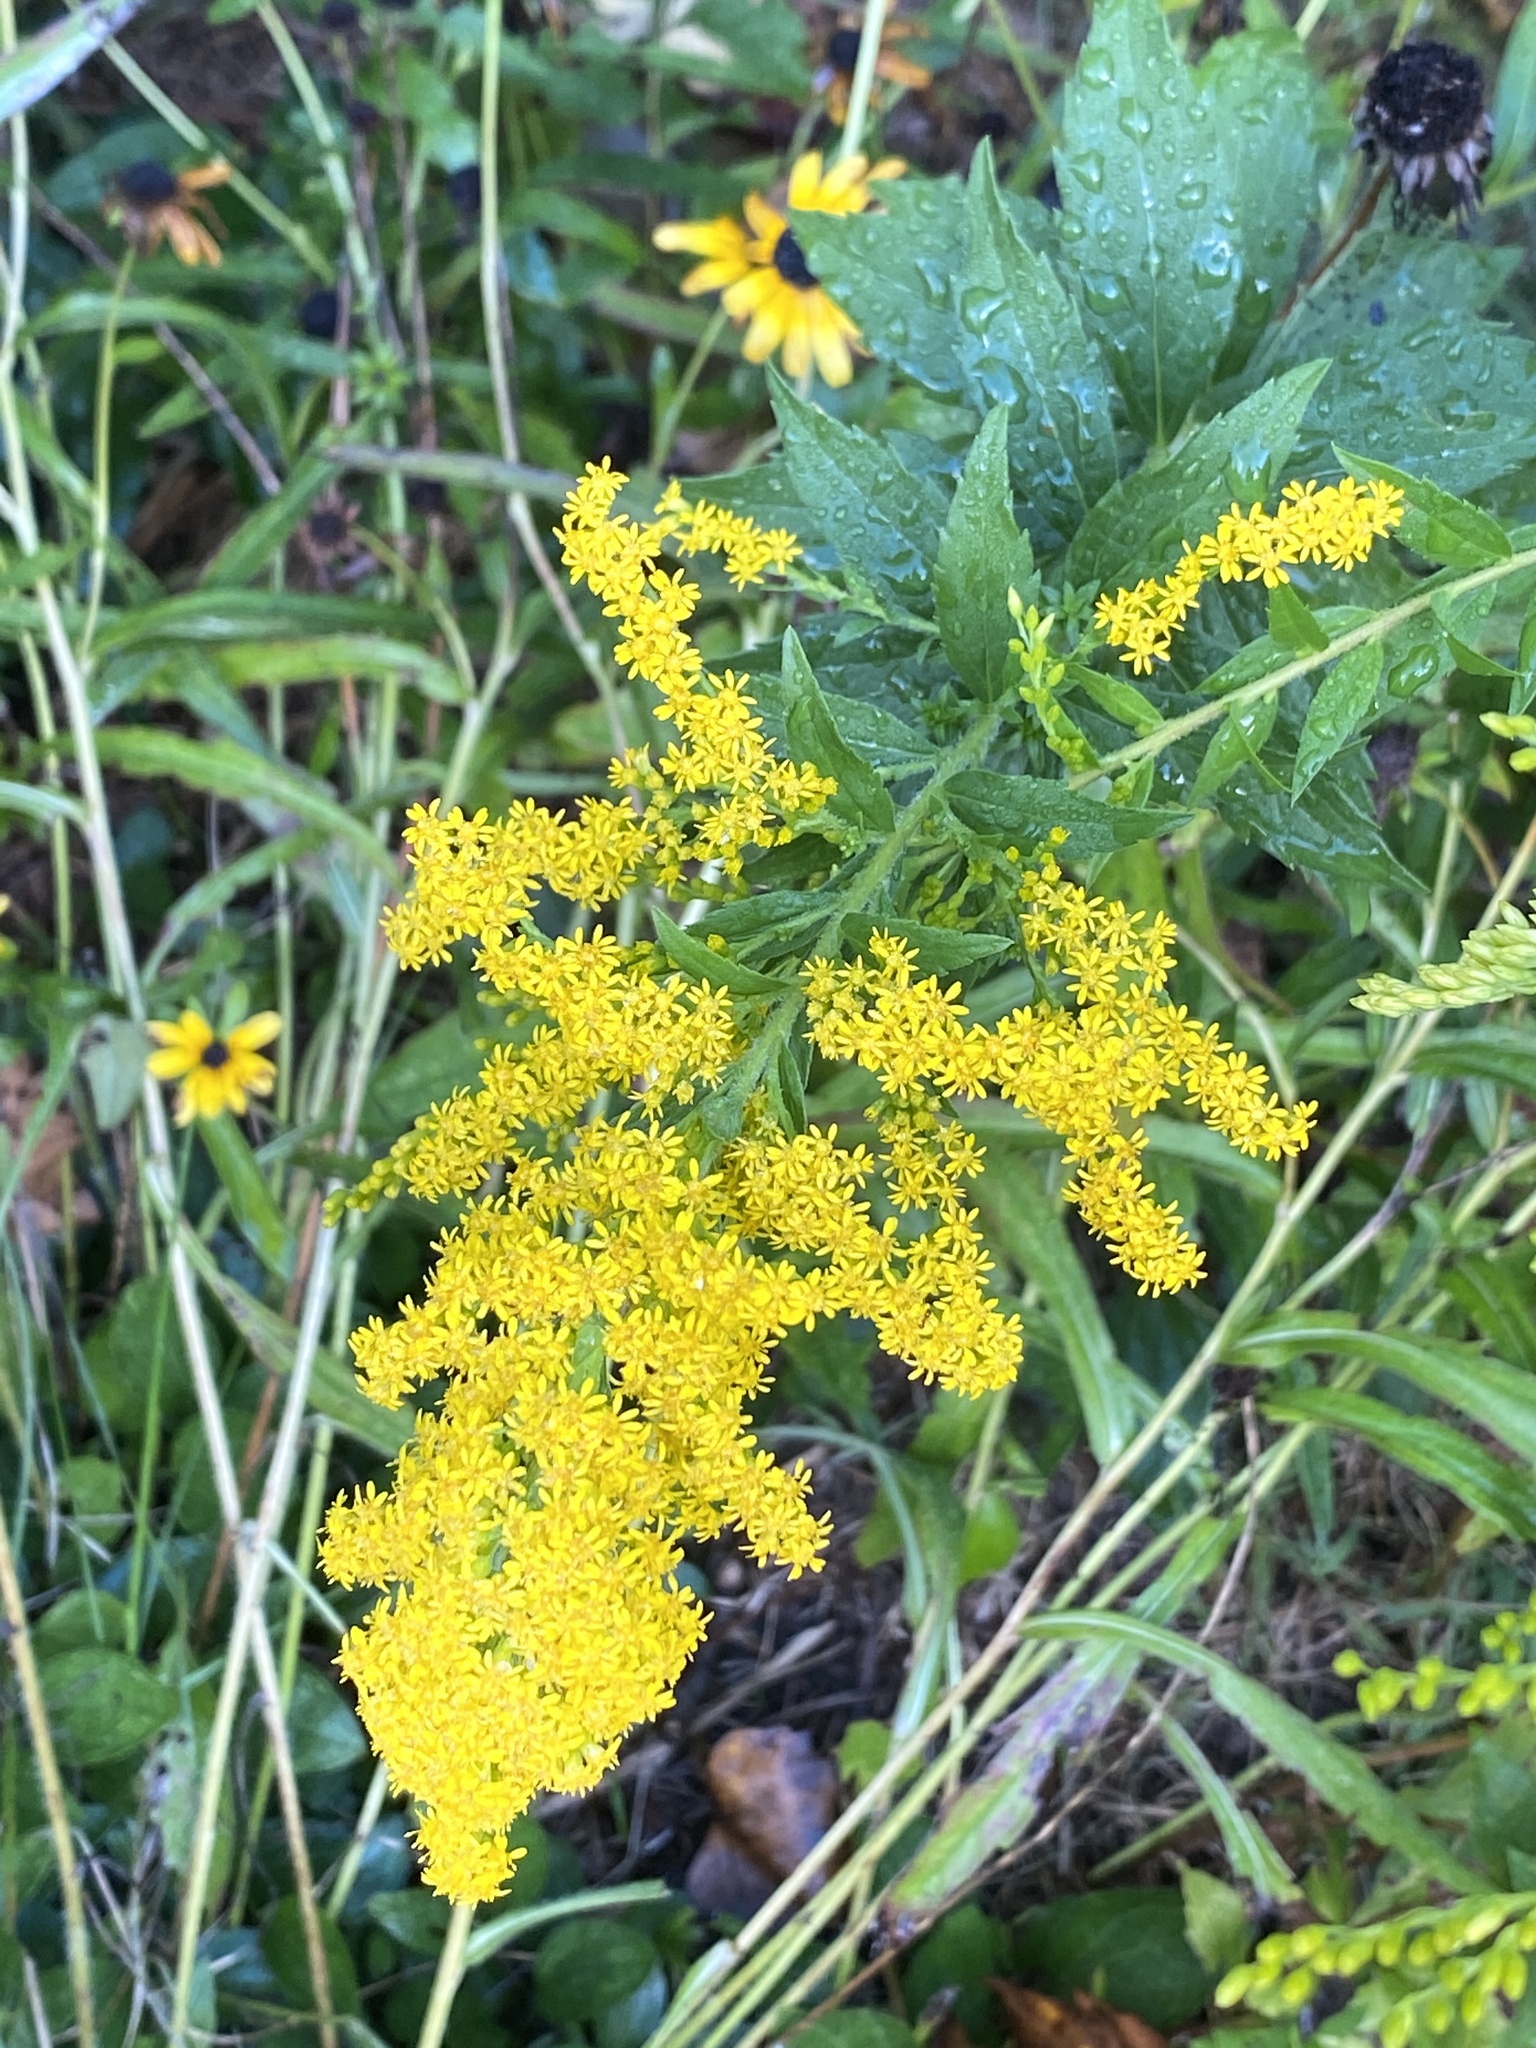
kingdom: Plantae
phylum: Tracheophyta
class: Magnoliopsida
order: Asterales
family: Asteraceae
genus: Solidago
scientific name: Solidago rugosa
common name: Rough-stemmed goldenrod
